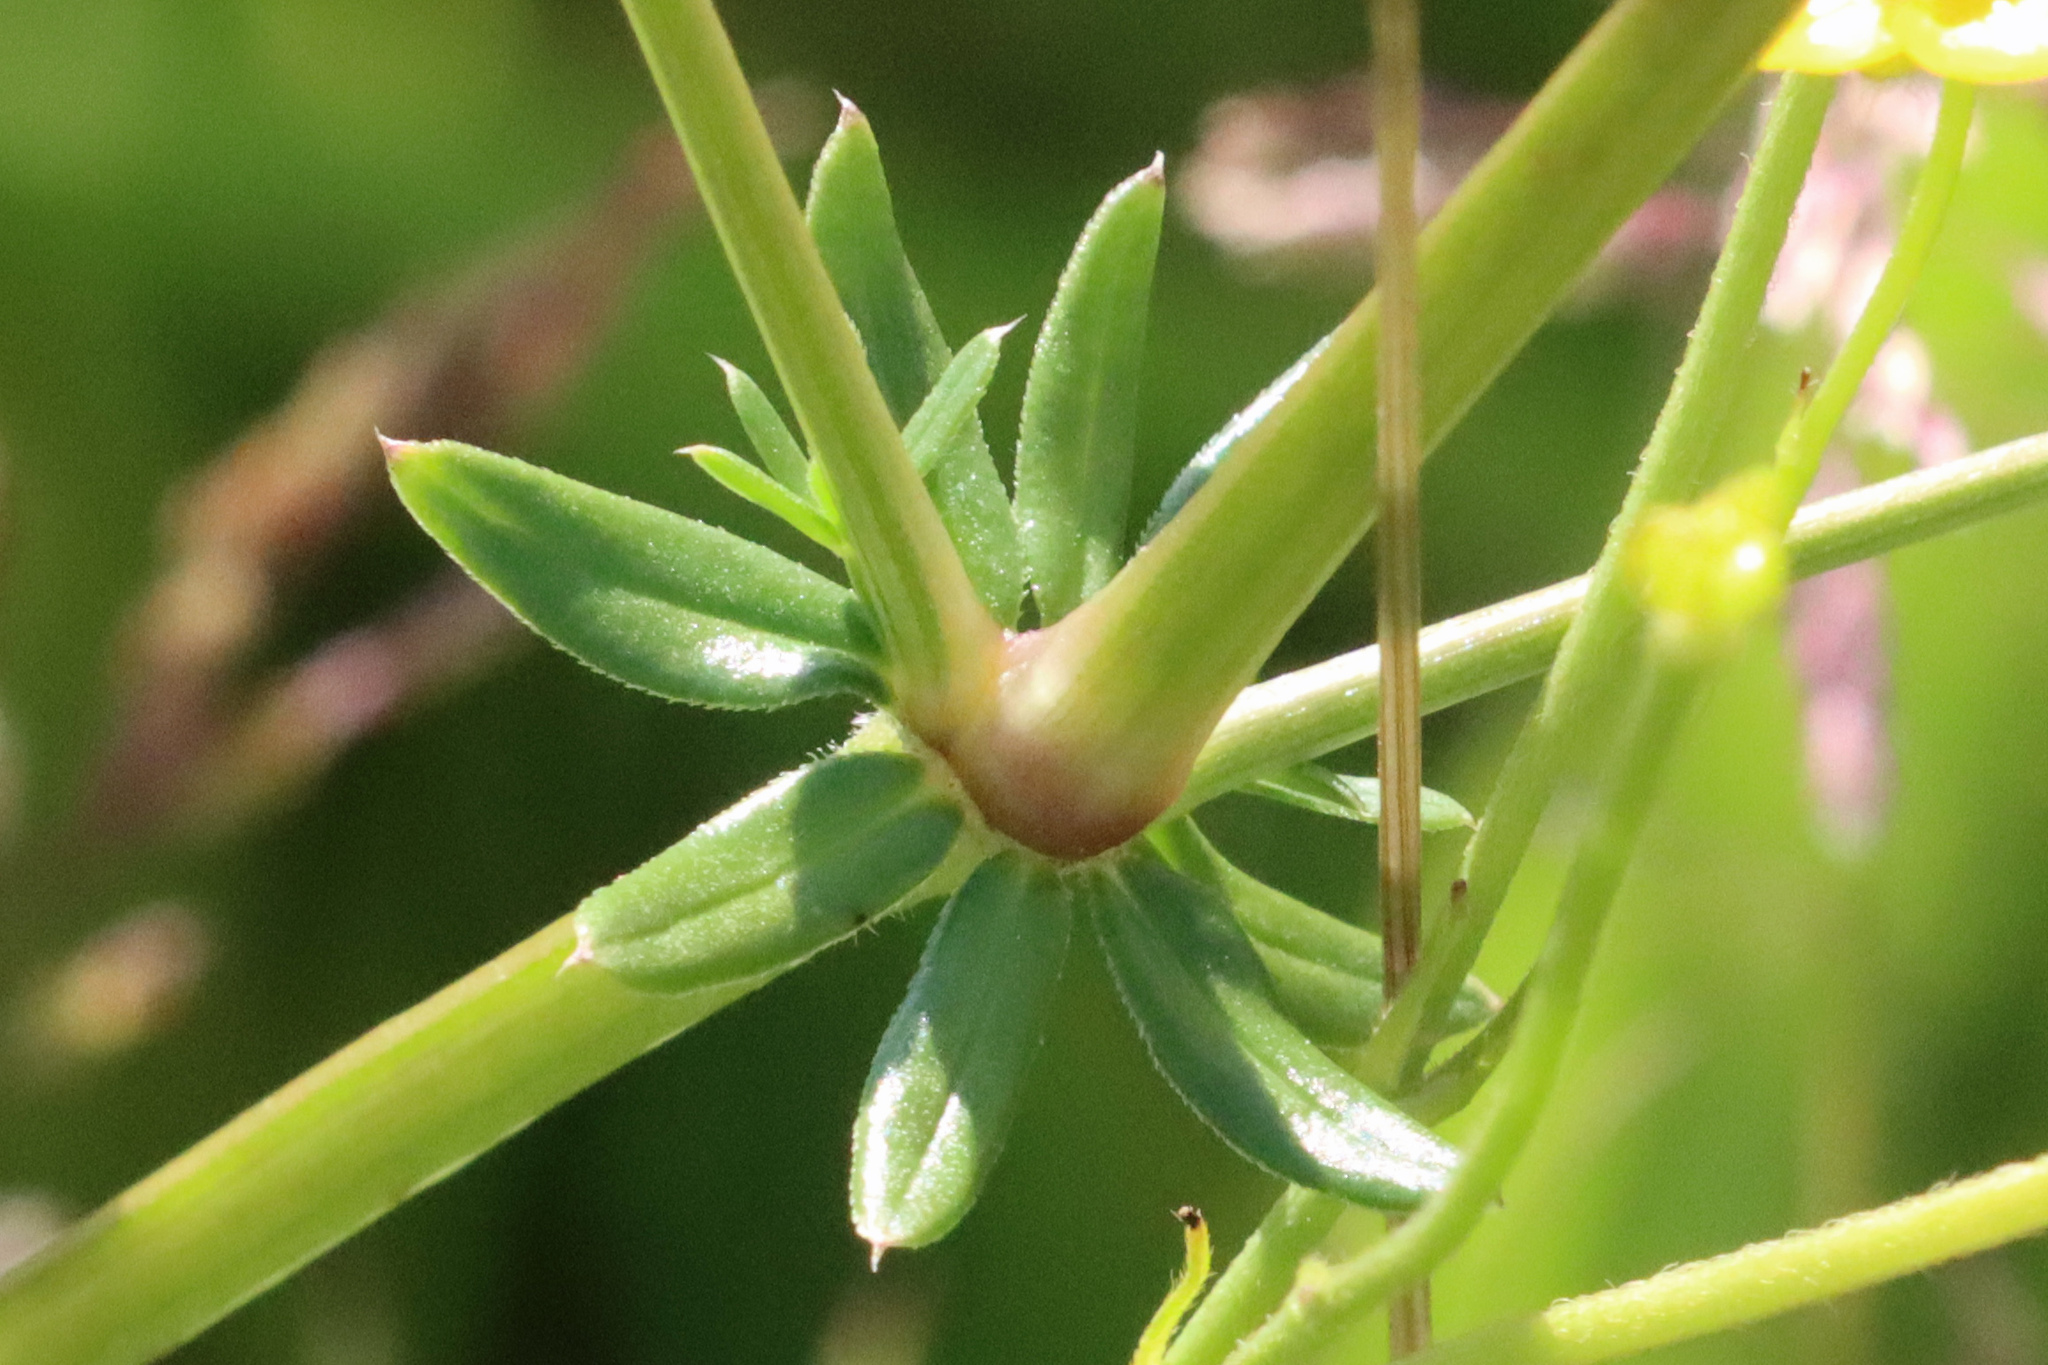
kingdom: Plantae
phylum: Tracheophyta
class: Magnoliopsida
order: Gentianales
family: Rubiaceae
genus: Galium
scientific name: Galium mollugo
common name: Hedge bedstraw
